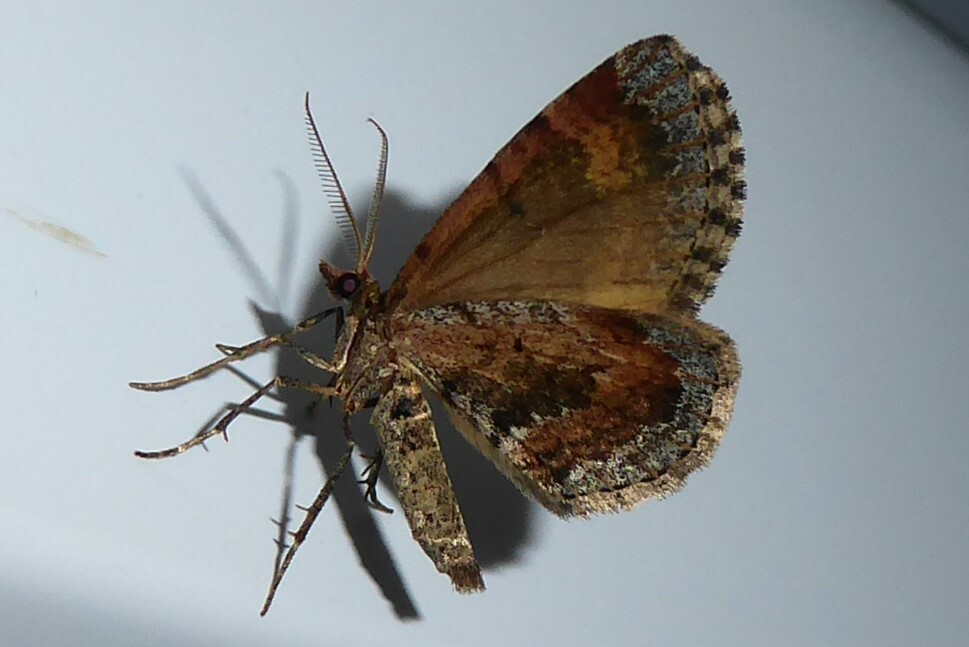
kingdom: Animalia
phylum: Arthropoda
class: Insecta
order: Lepidoptera
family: Geometridae
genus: Asaphodes
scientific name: Asaphodes aegrota
